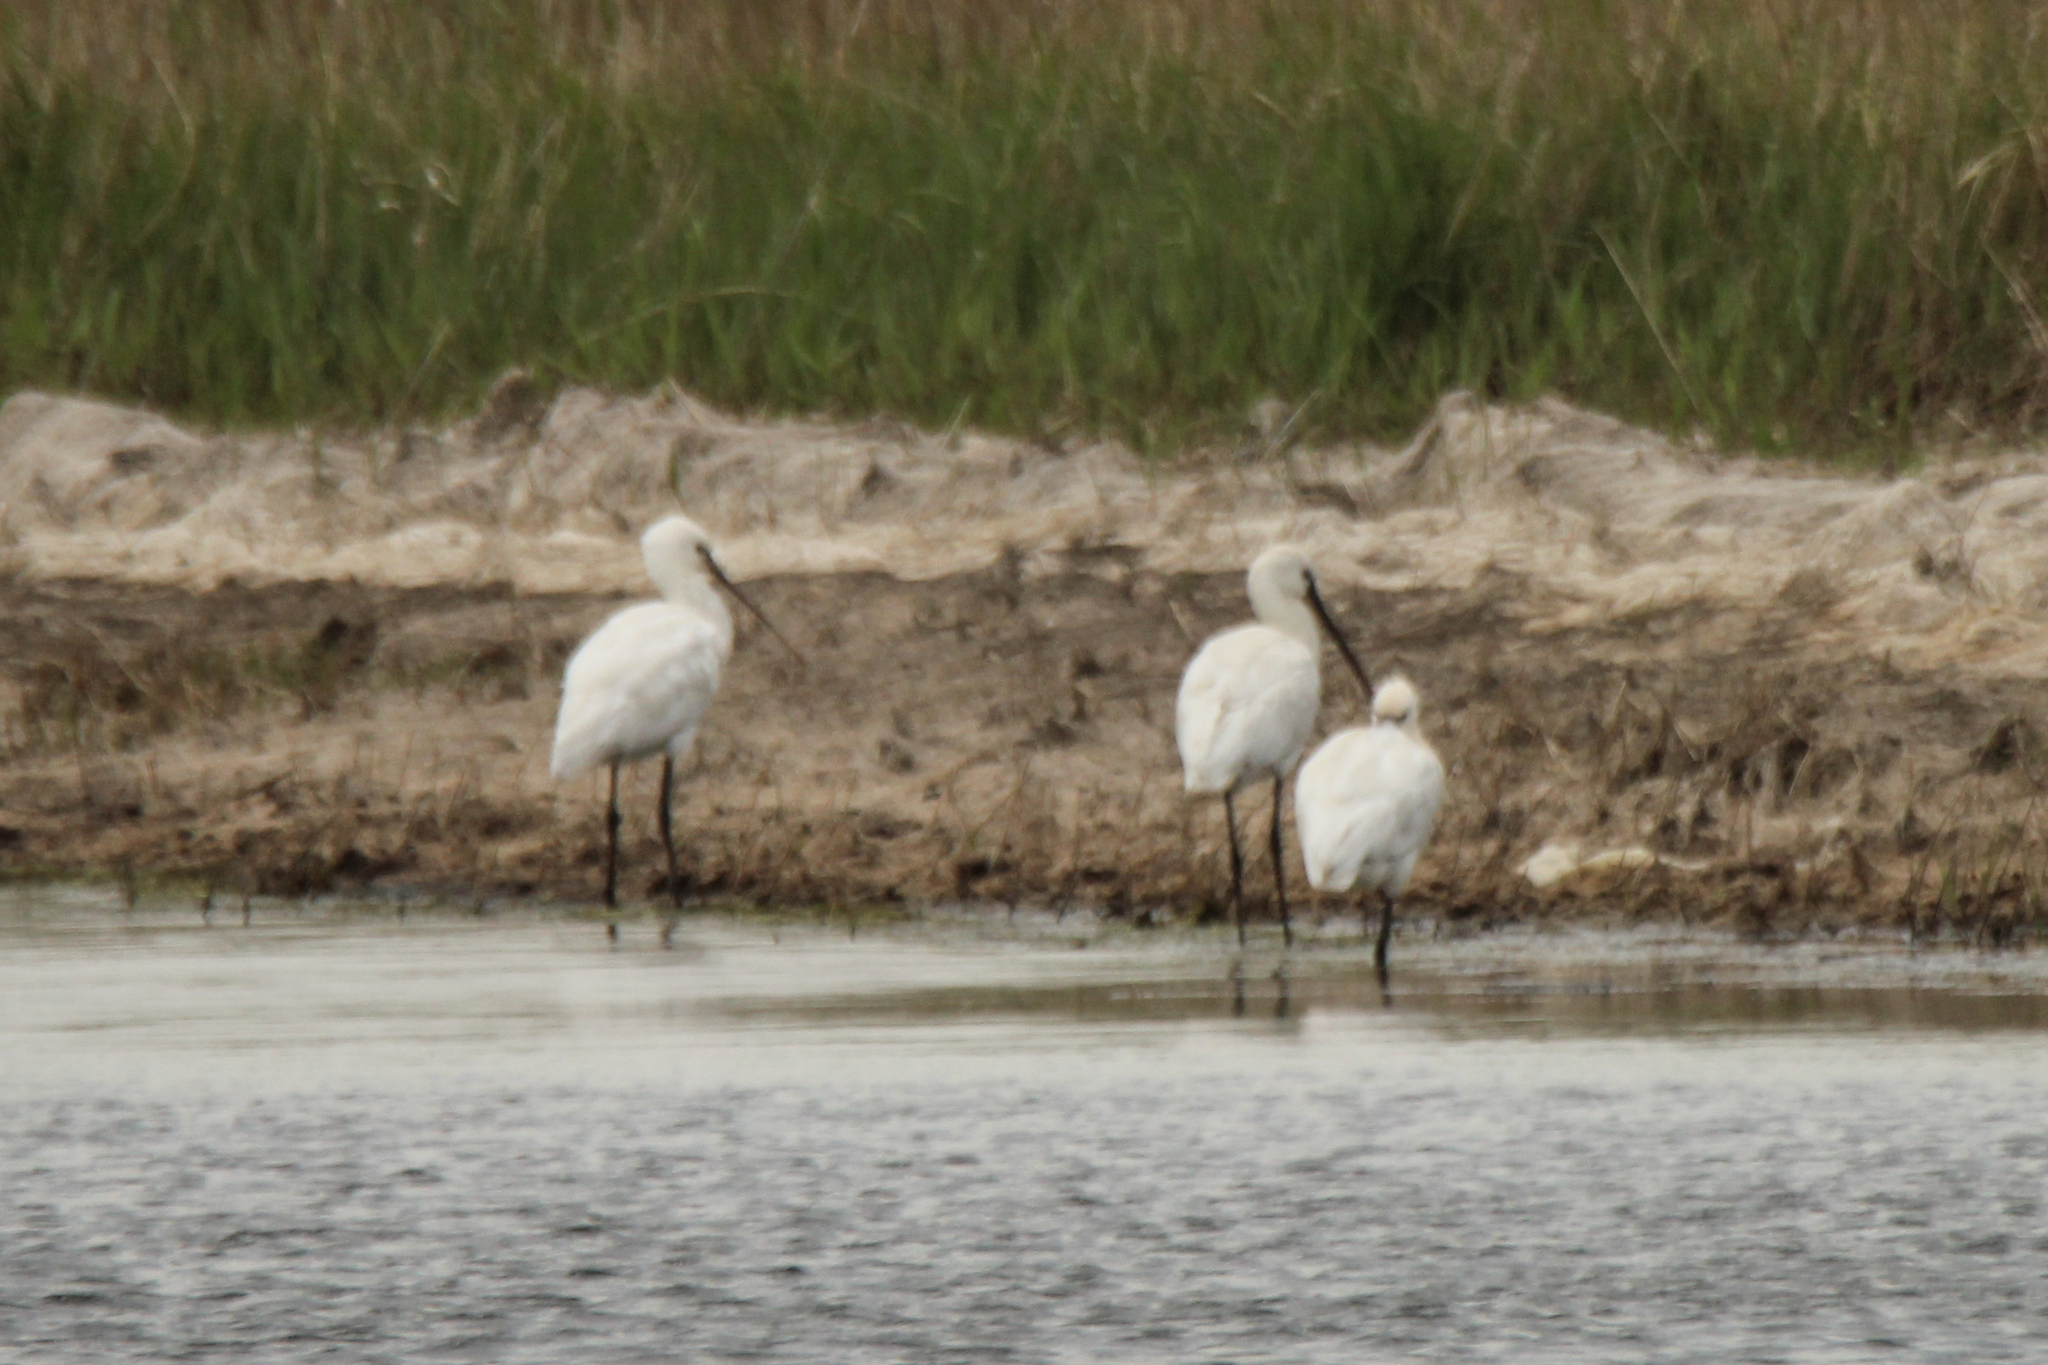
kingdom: Animalia
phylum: Chordata
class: Aves
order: Pelecaniformes
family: Threskiornithidae
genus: Platalea
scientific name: Platalea leucorodia
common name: Eurasian spoonbill
